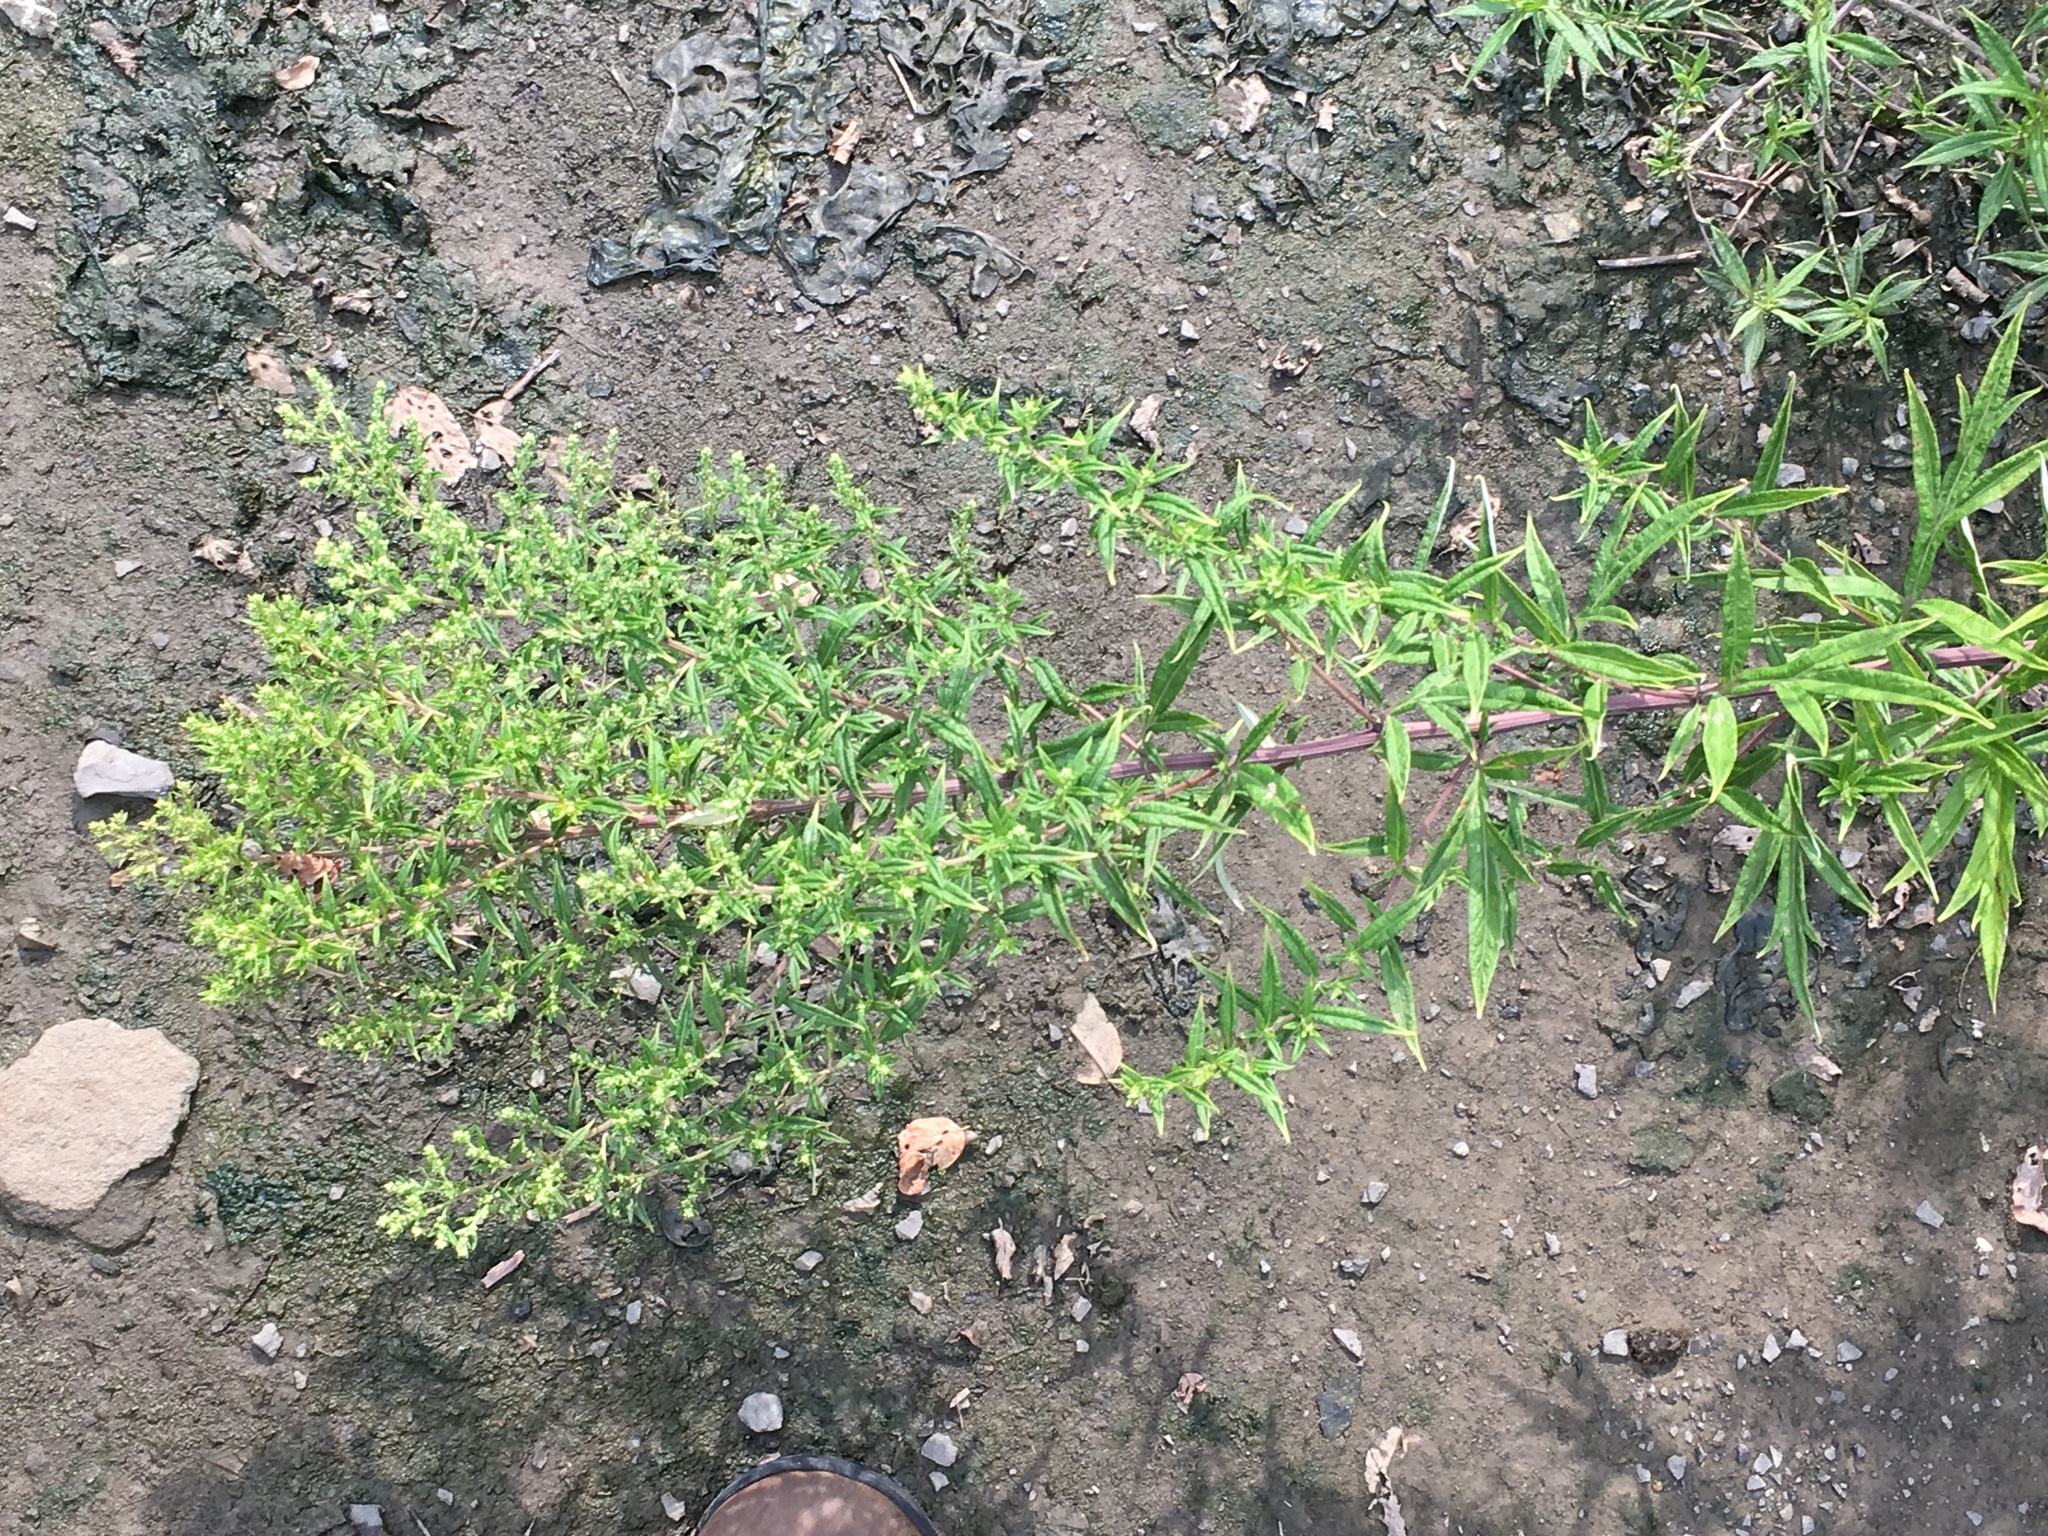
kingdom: Plantae
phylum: Tracheophyta
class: Magnoliopsida
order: Asterales
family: Asteraceae
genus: Artemisia
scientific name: Artemisia vulgaris
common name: Mugwort
